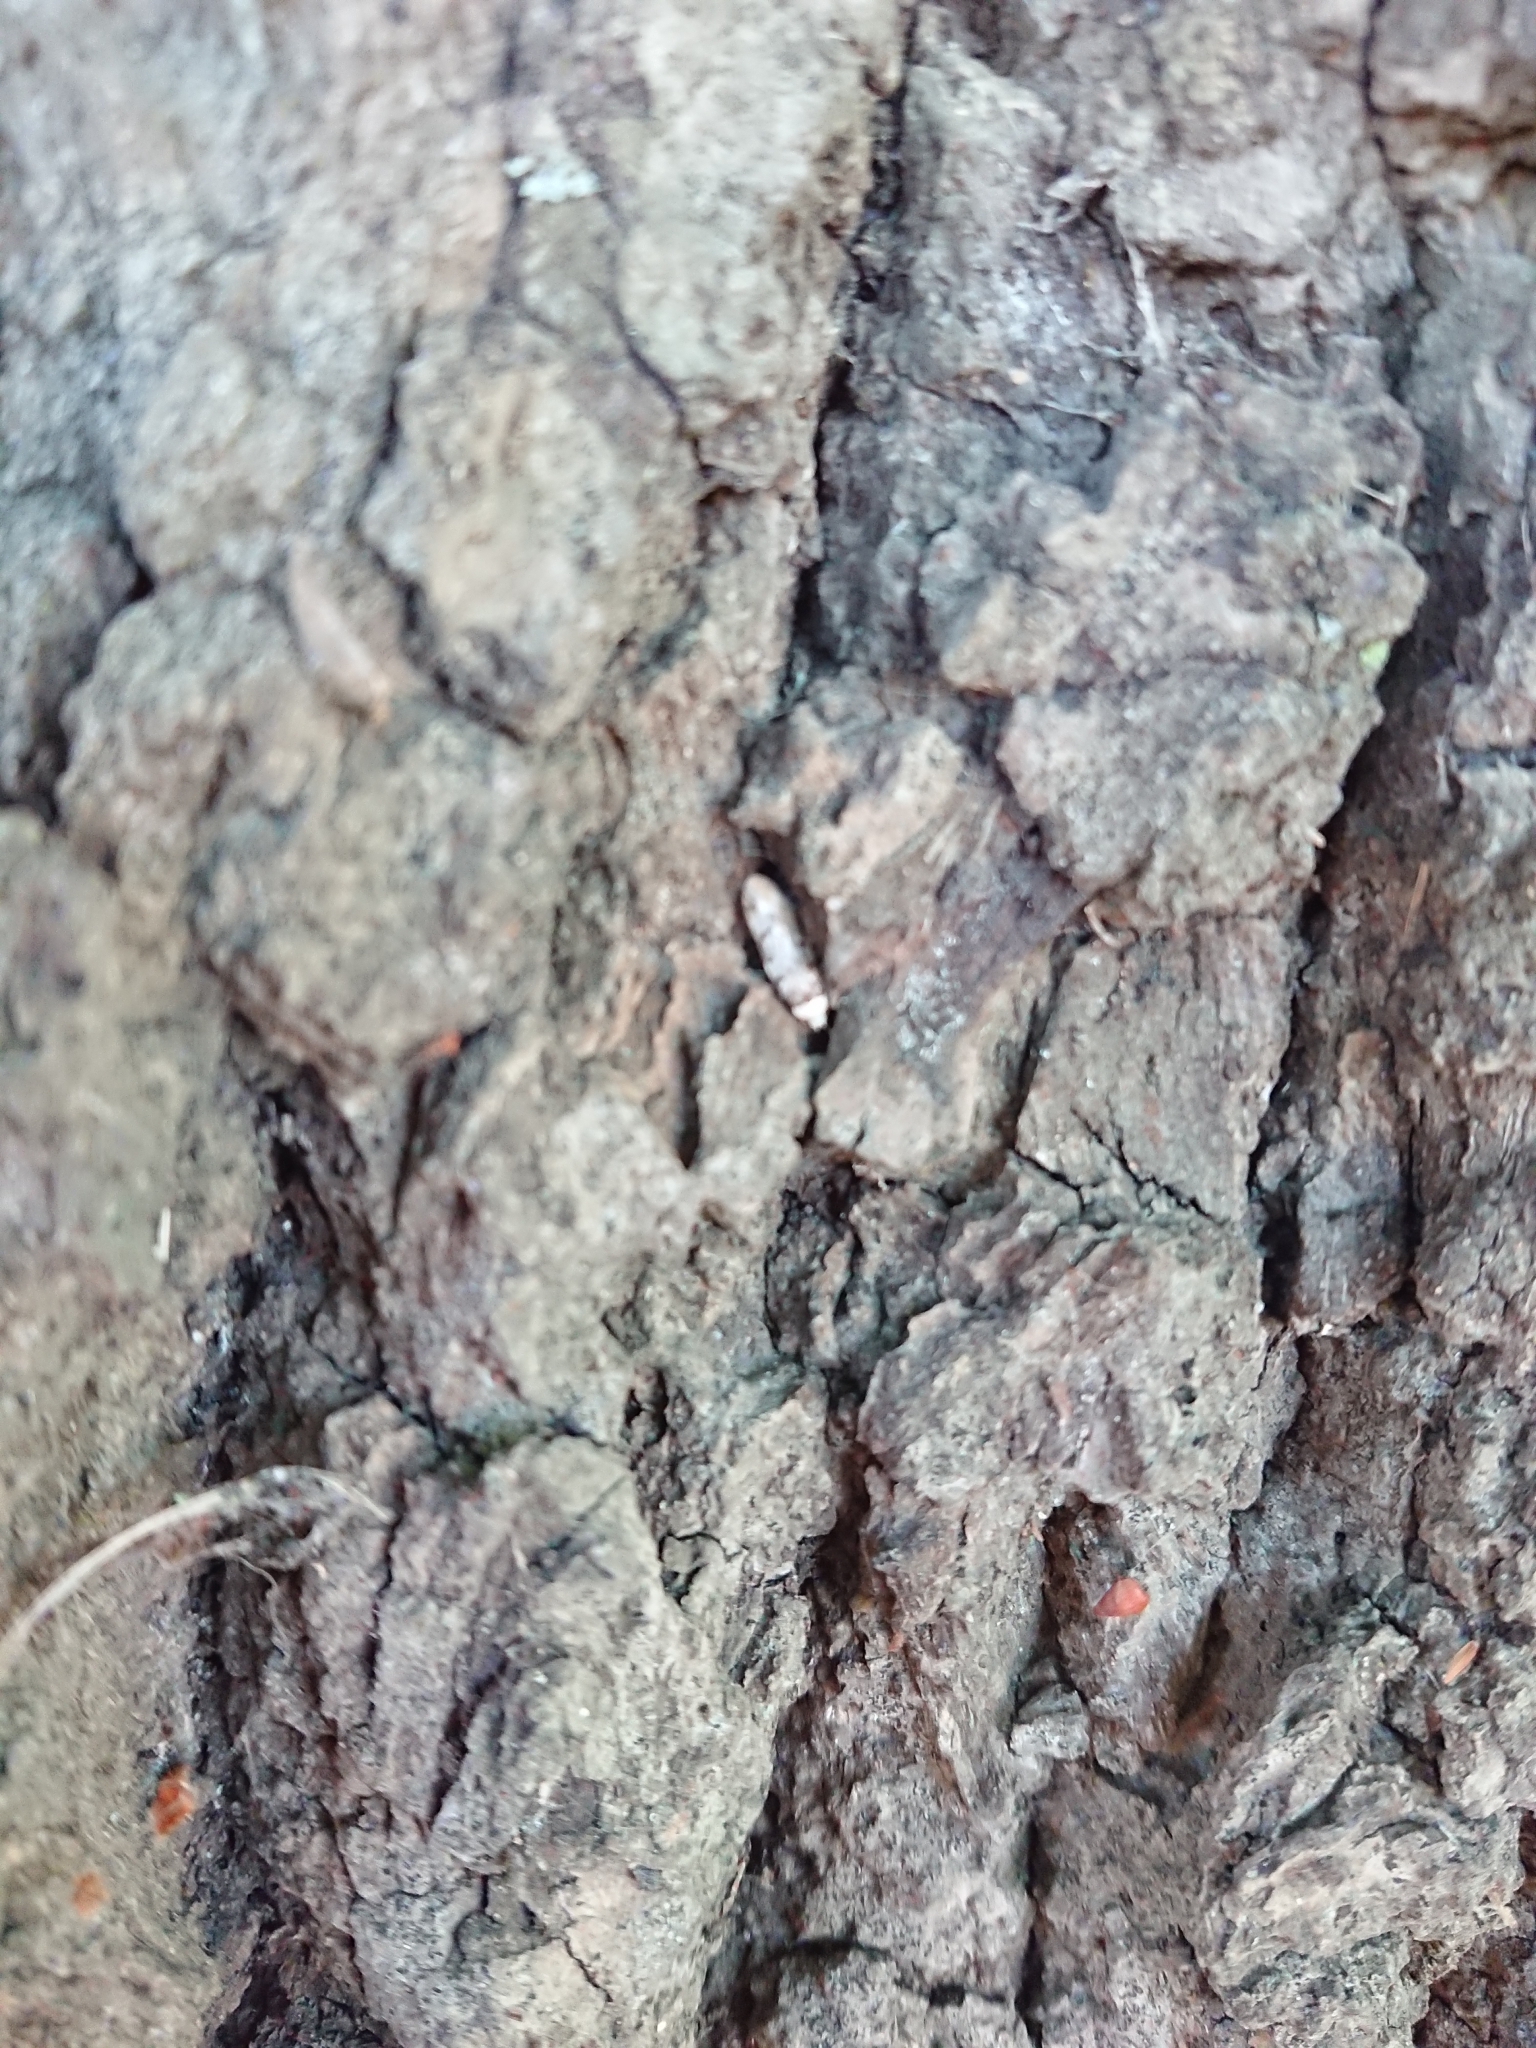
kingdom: Animalia
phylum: Arthropoda
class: Insecta
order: Lepidoptera
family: Oecophoridae
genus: Endrosis
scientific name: Endrosis sarcitrella
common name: White-shouldered house moth
